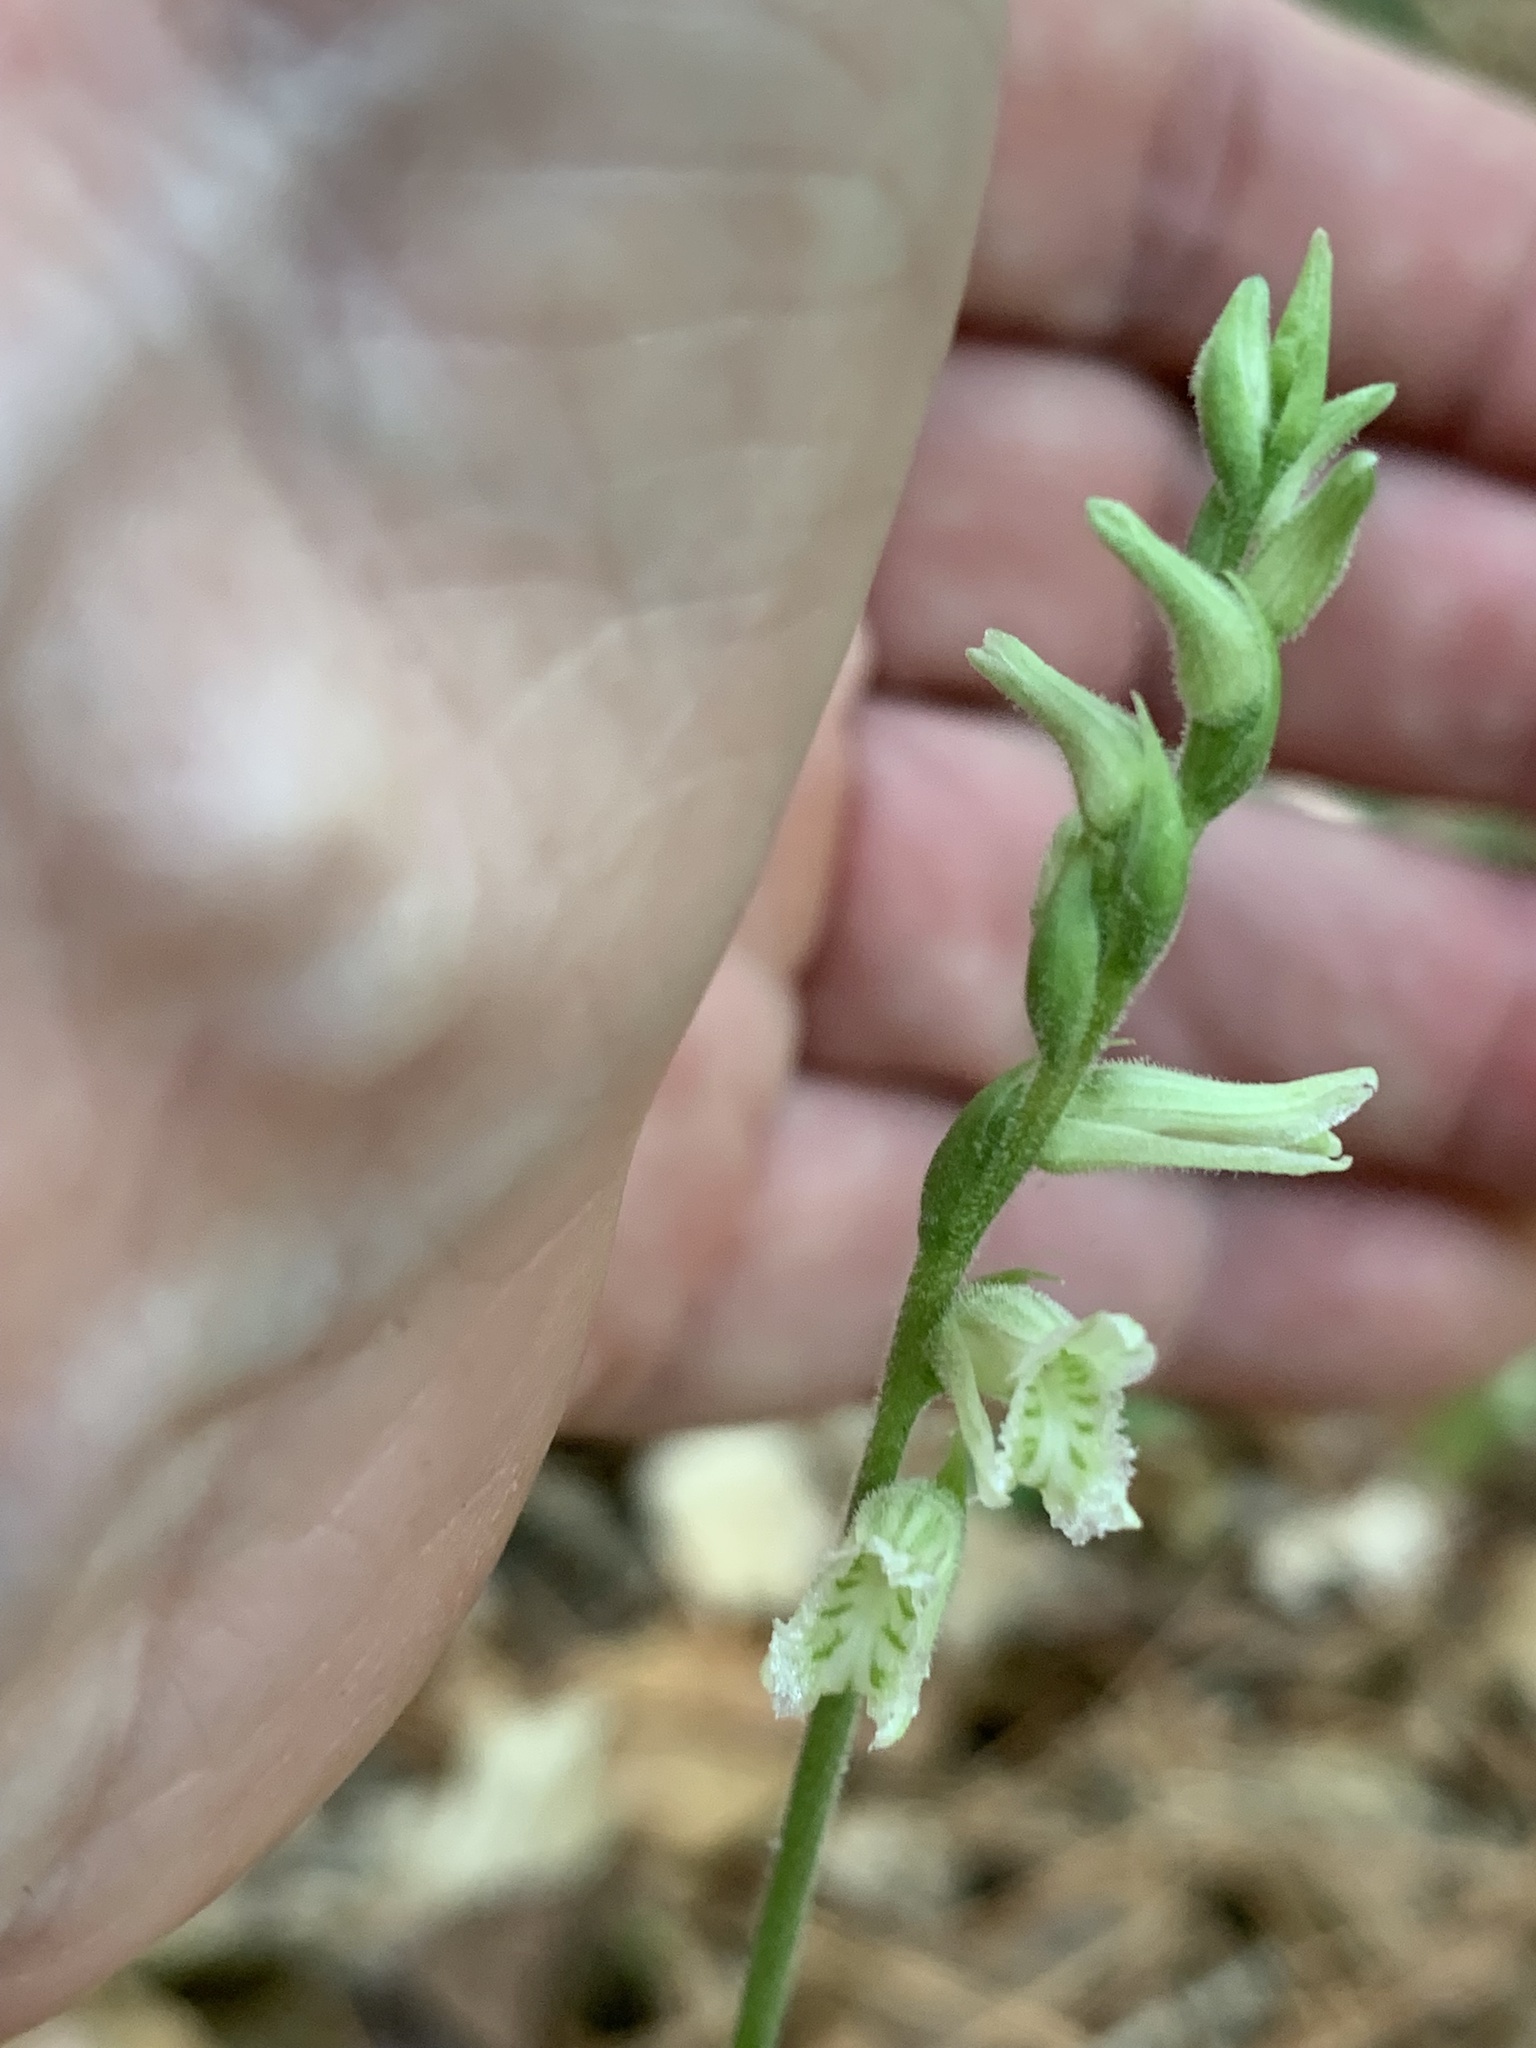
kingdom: Plantae
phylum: Tracheophyta
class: Liliopsida
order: Asparagales
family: Orchidaceae
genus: Spiranthes
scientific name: Spiranthes praecox
